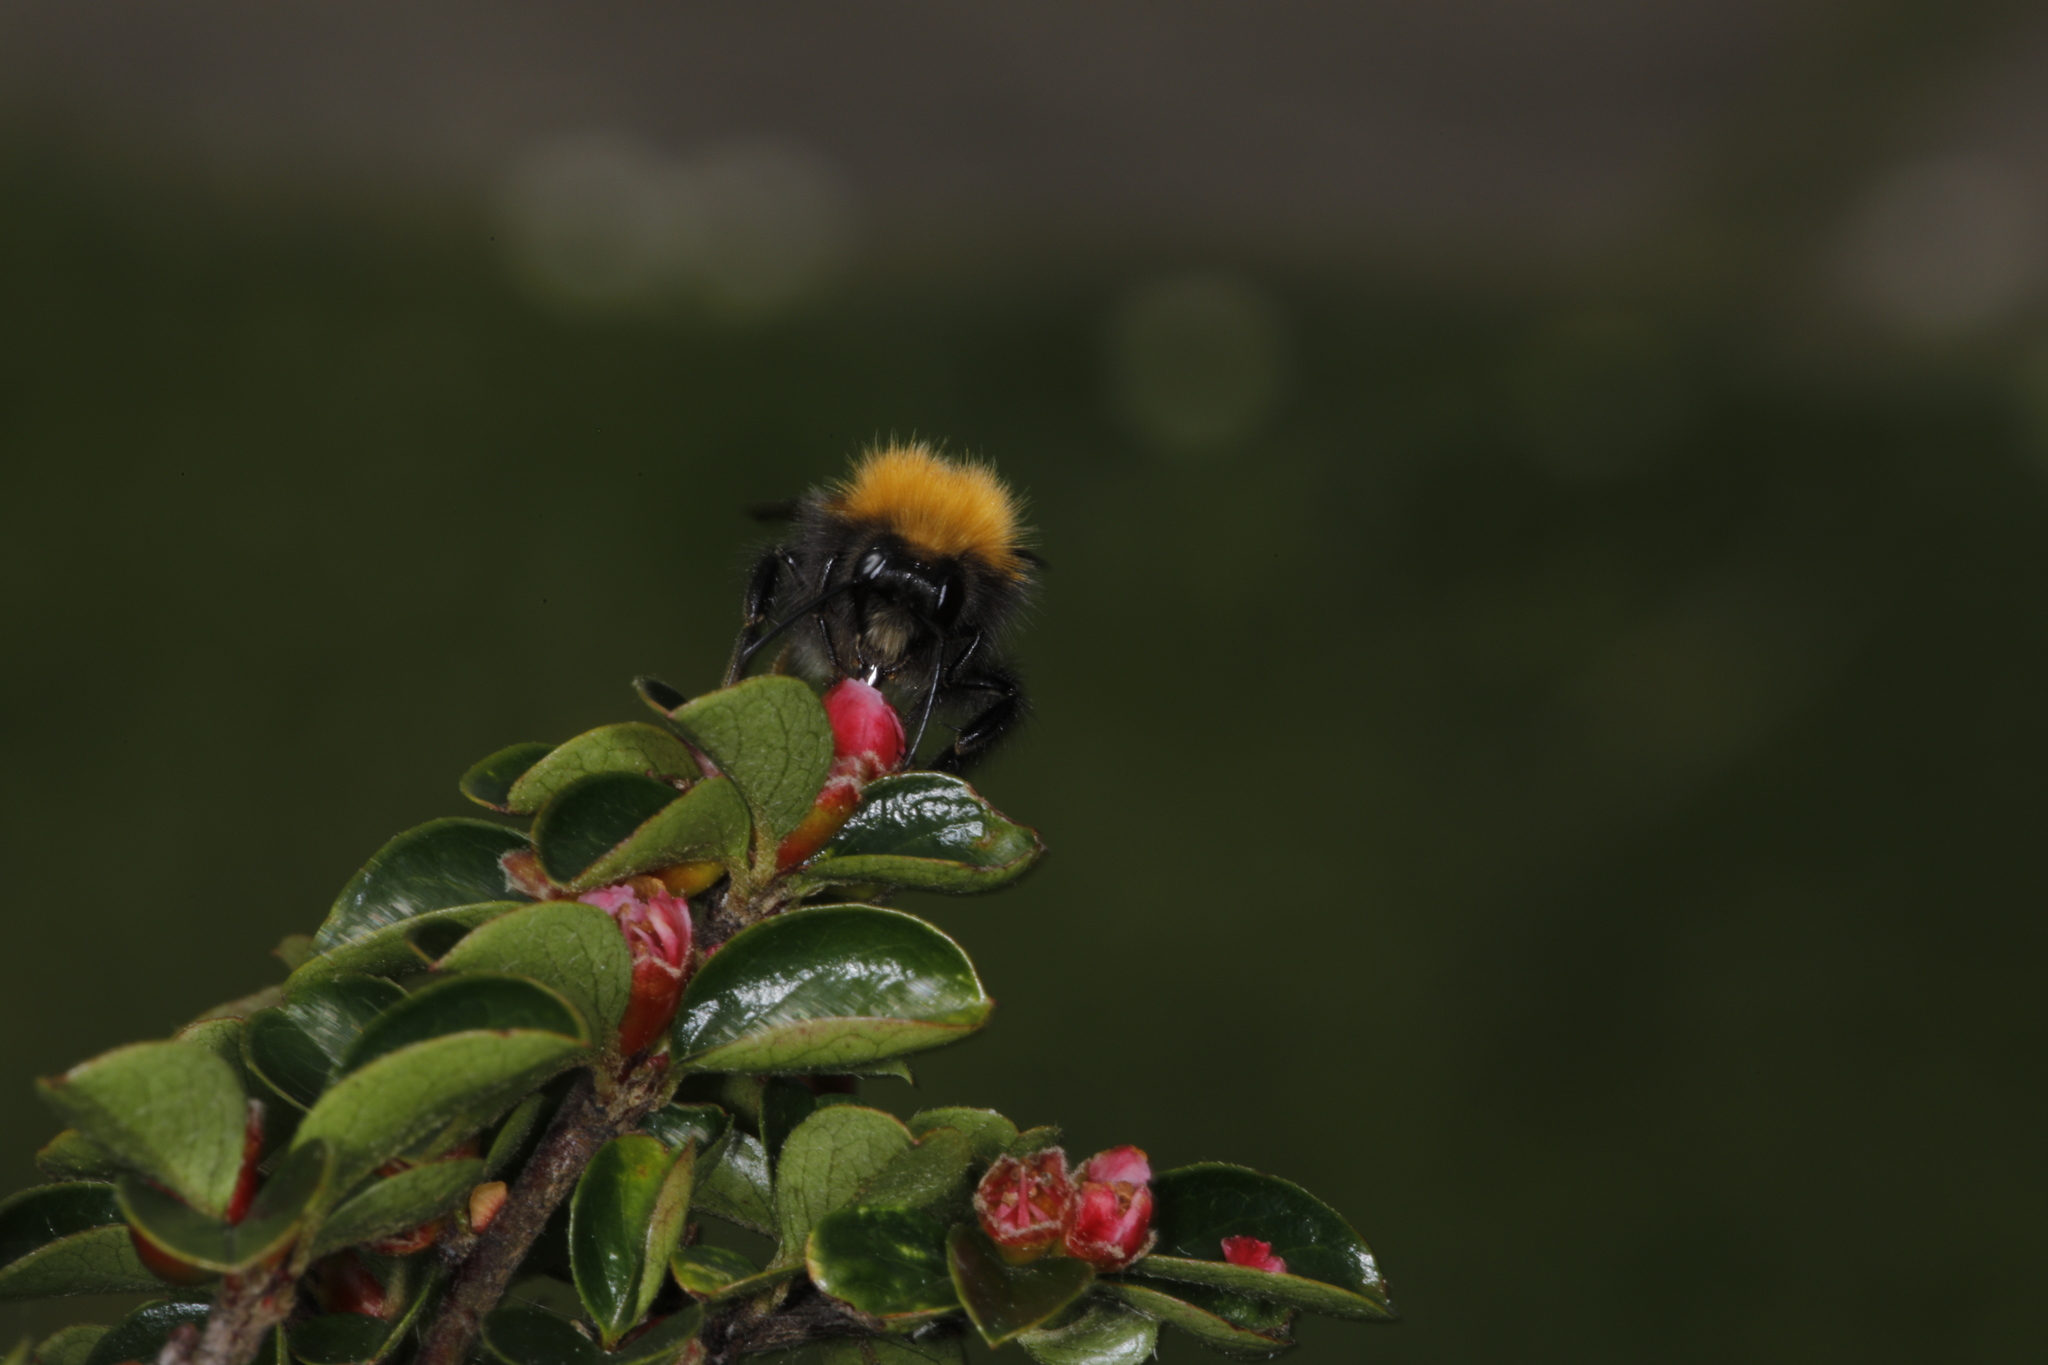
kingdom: Animalia
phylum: Arthropoda
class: Insecta
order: Hymenoptera
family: Apidae
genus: Bombus
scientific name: Bombus hypnorum
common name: New garden bumblebee
